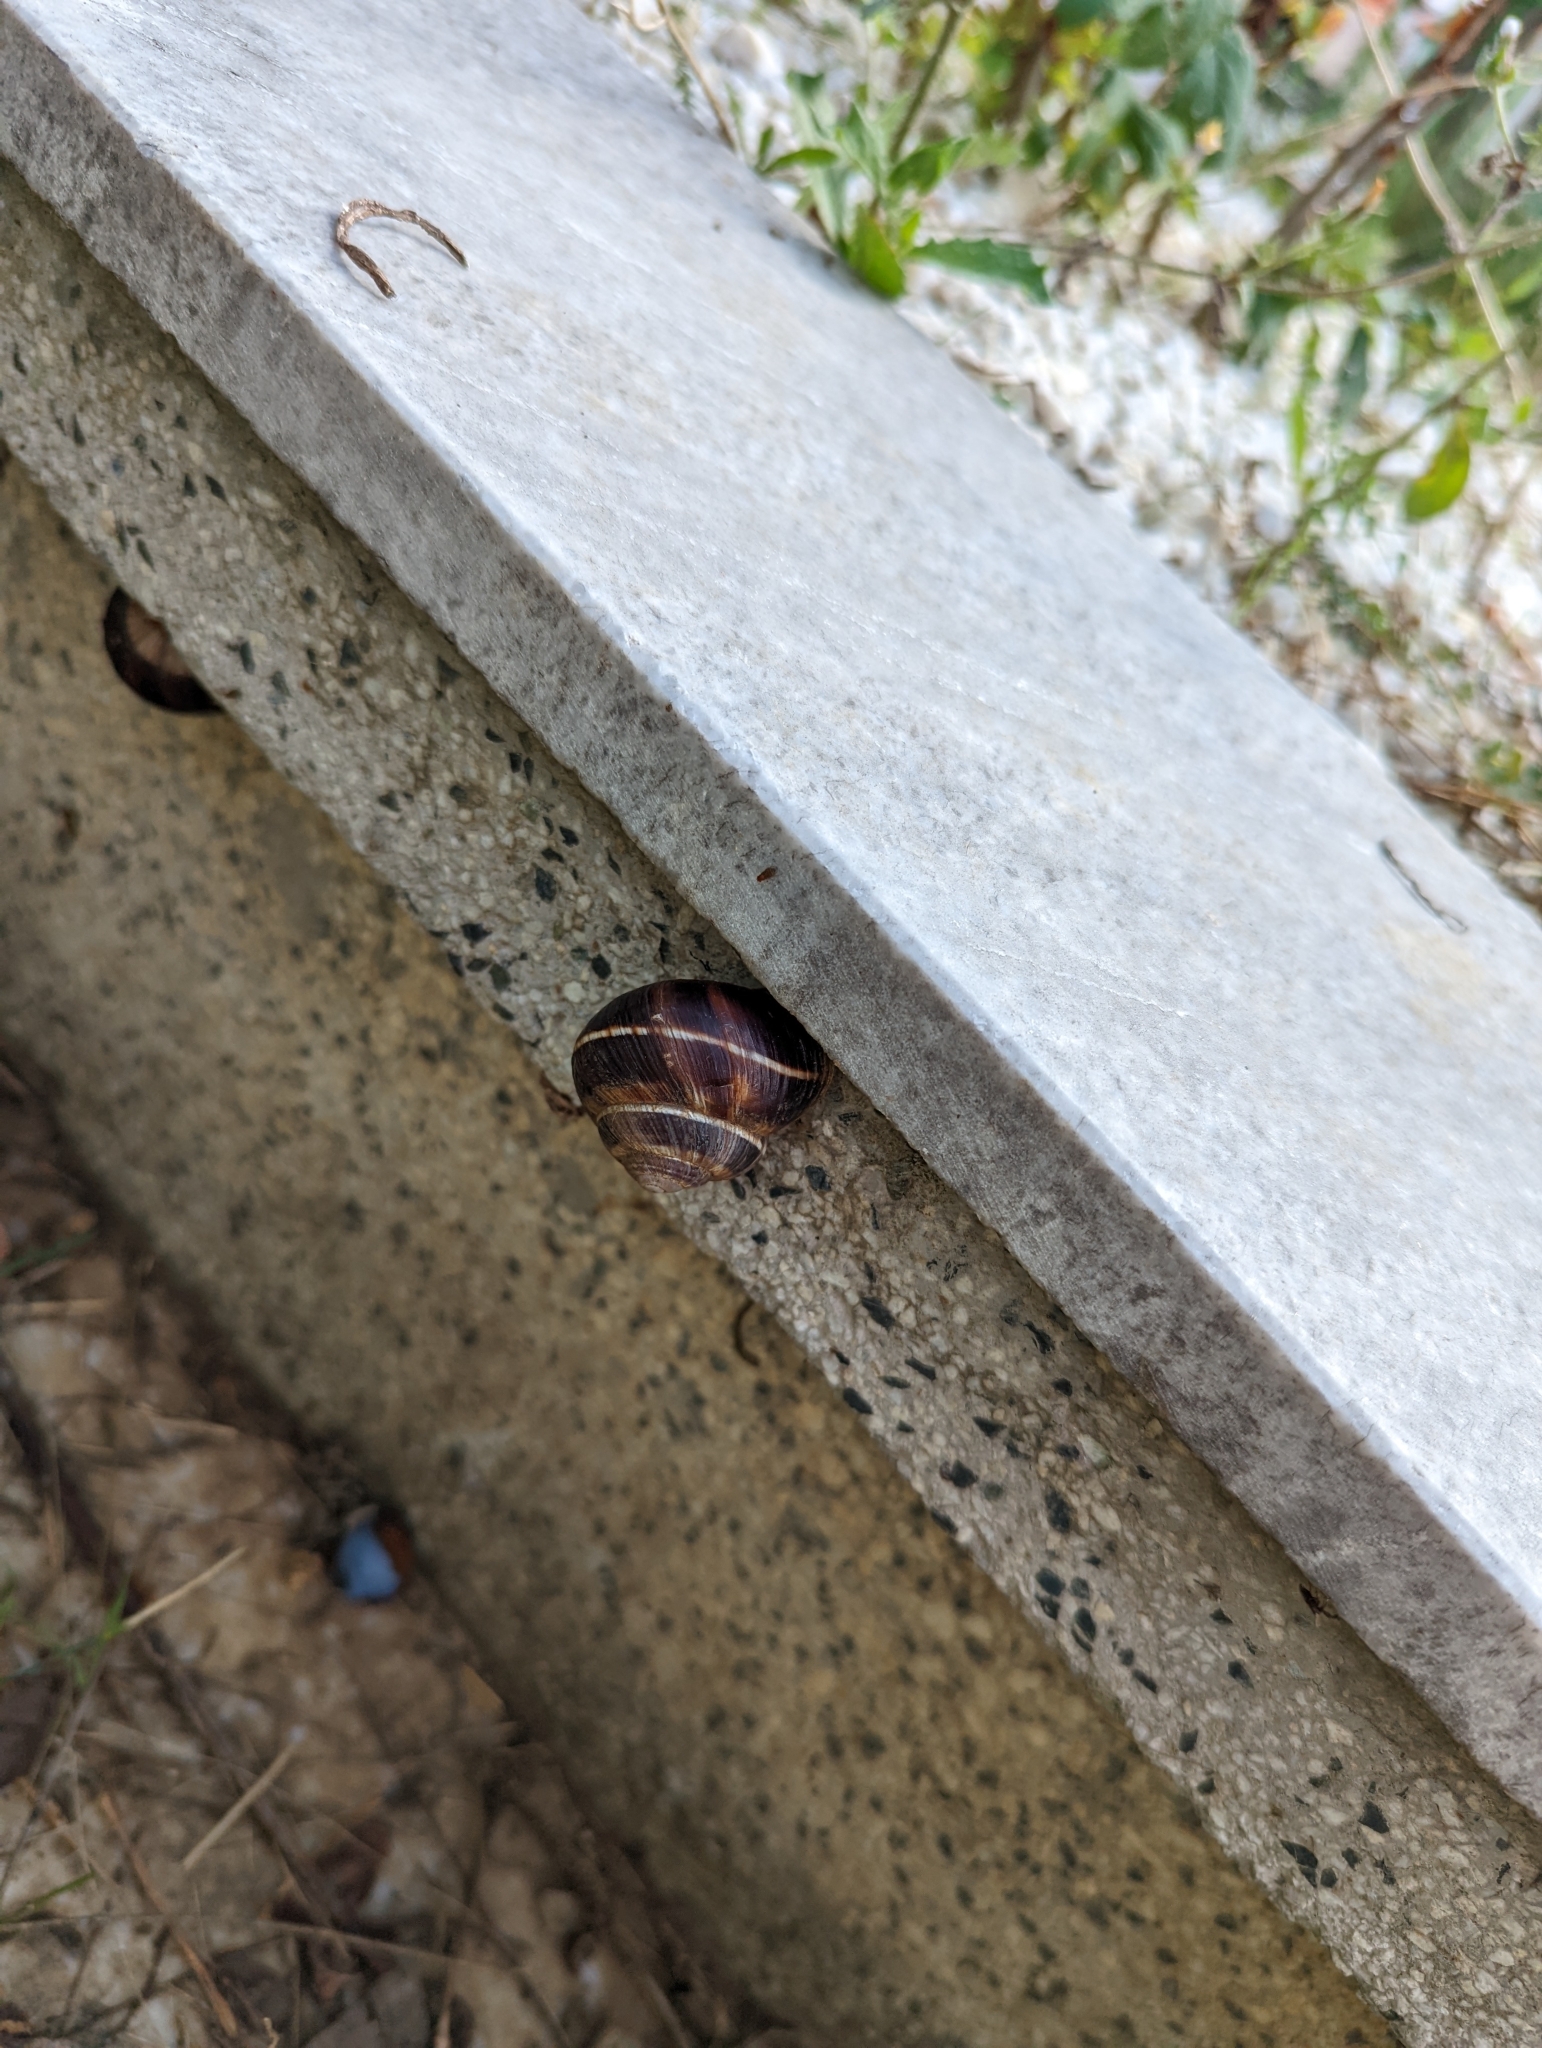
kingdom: Animalia
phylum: Mollusca
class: Gastropoda
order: Stylommatophora
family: Helicidae
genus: Helix
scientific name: Helix lucorum
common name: Turkish snail
